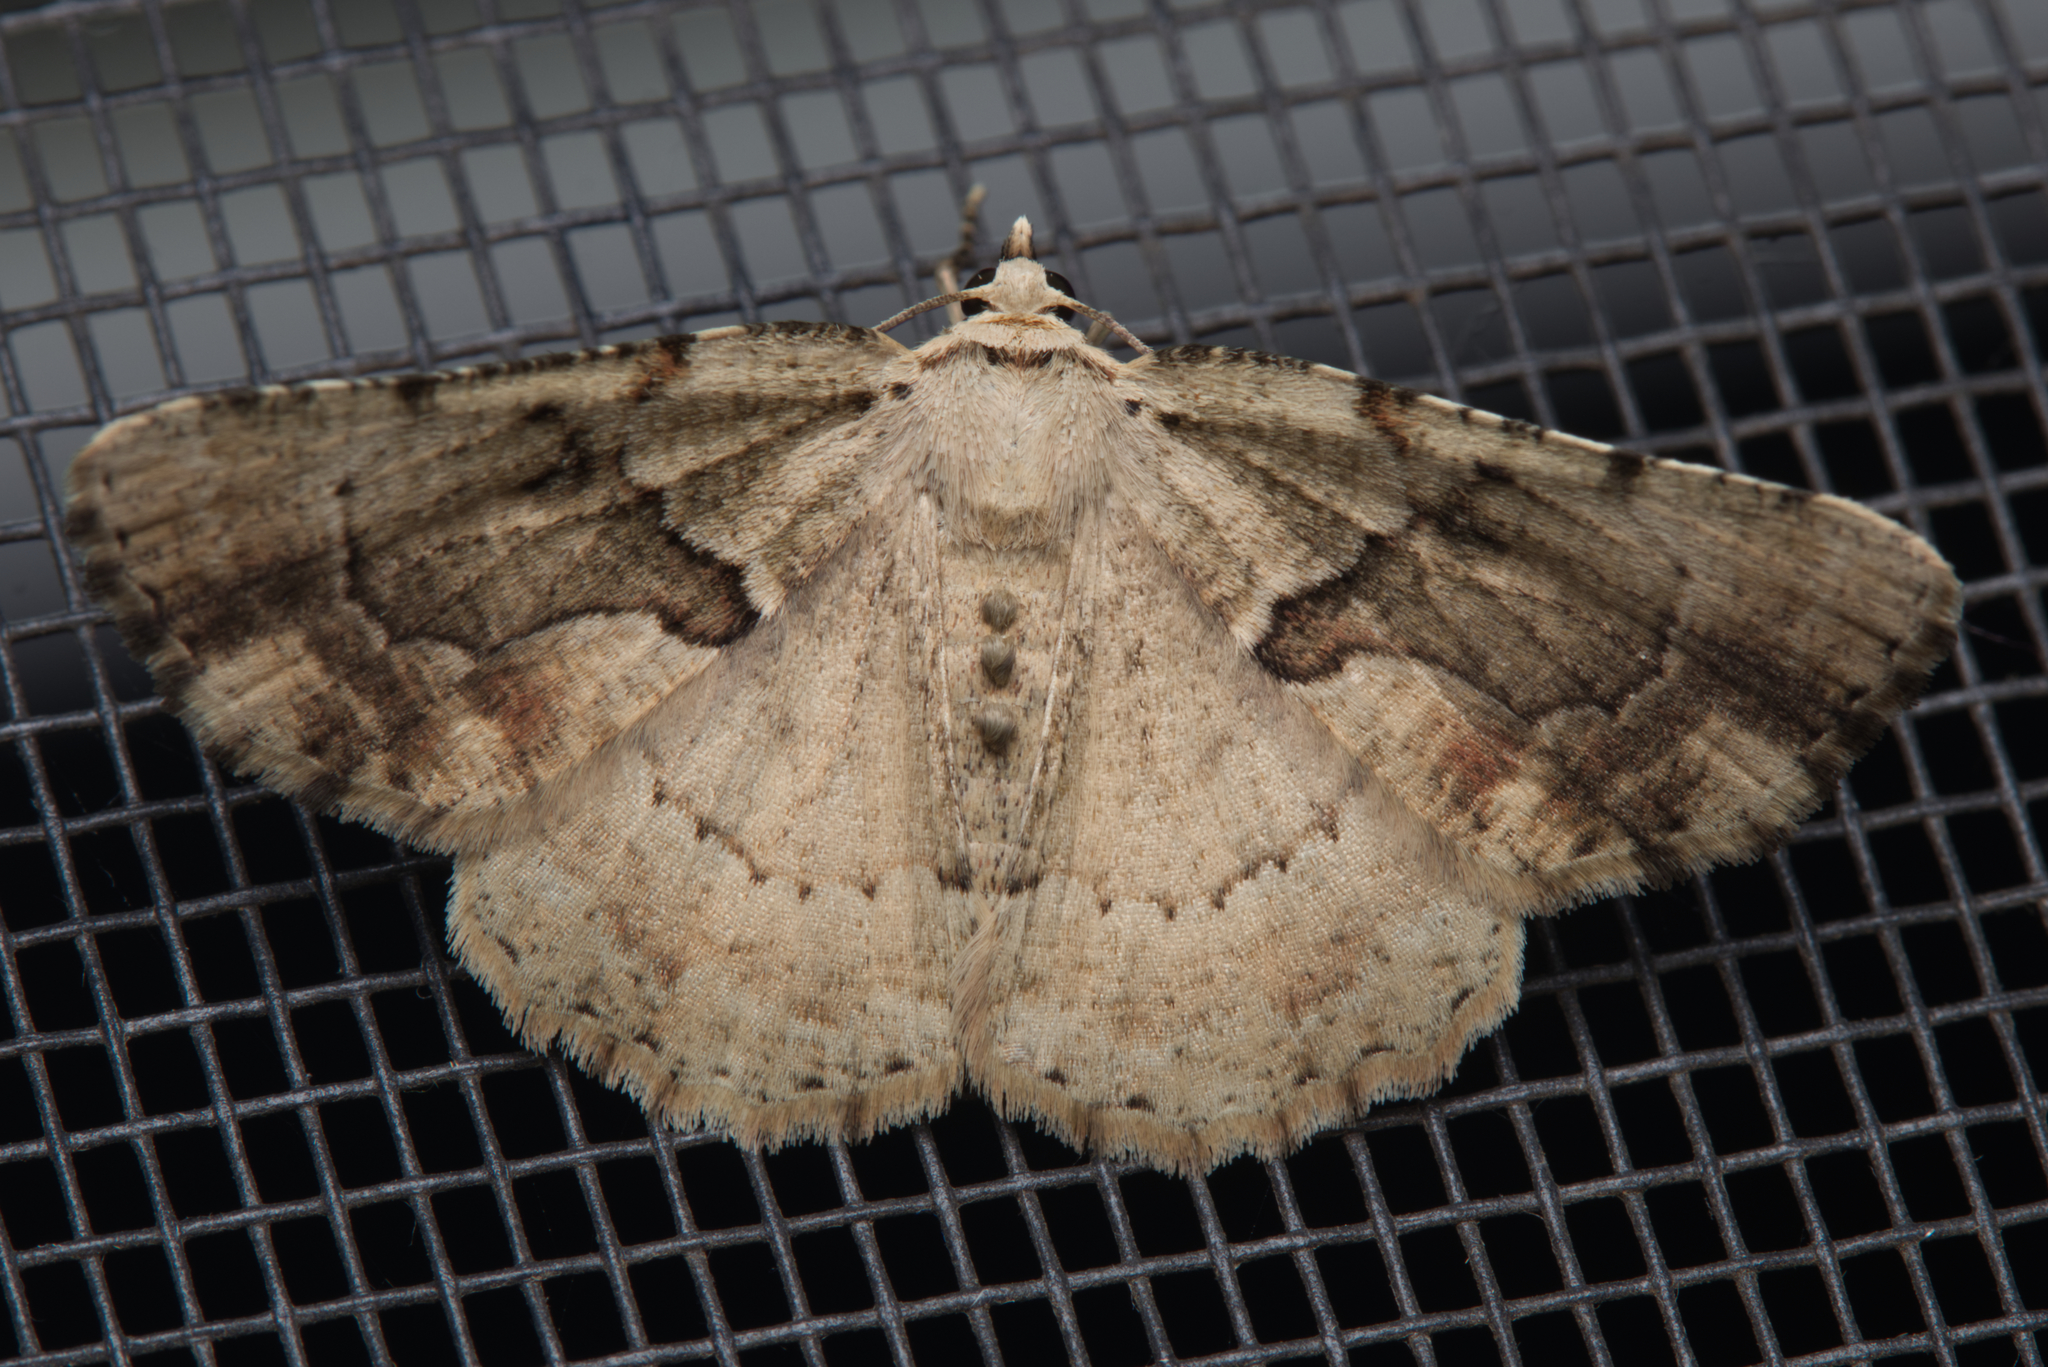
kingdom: Animalia
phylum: Arthropoda
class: Insecta
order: Lepidoptera
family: Geometridae
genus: Aeolochroma
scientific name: Aeolochroma melaleucae
